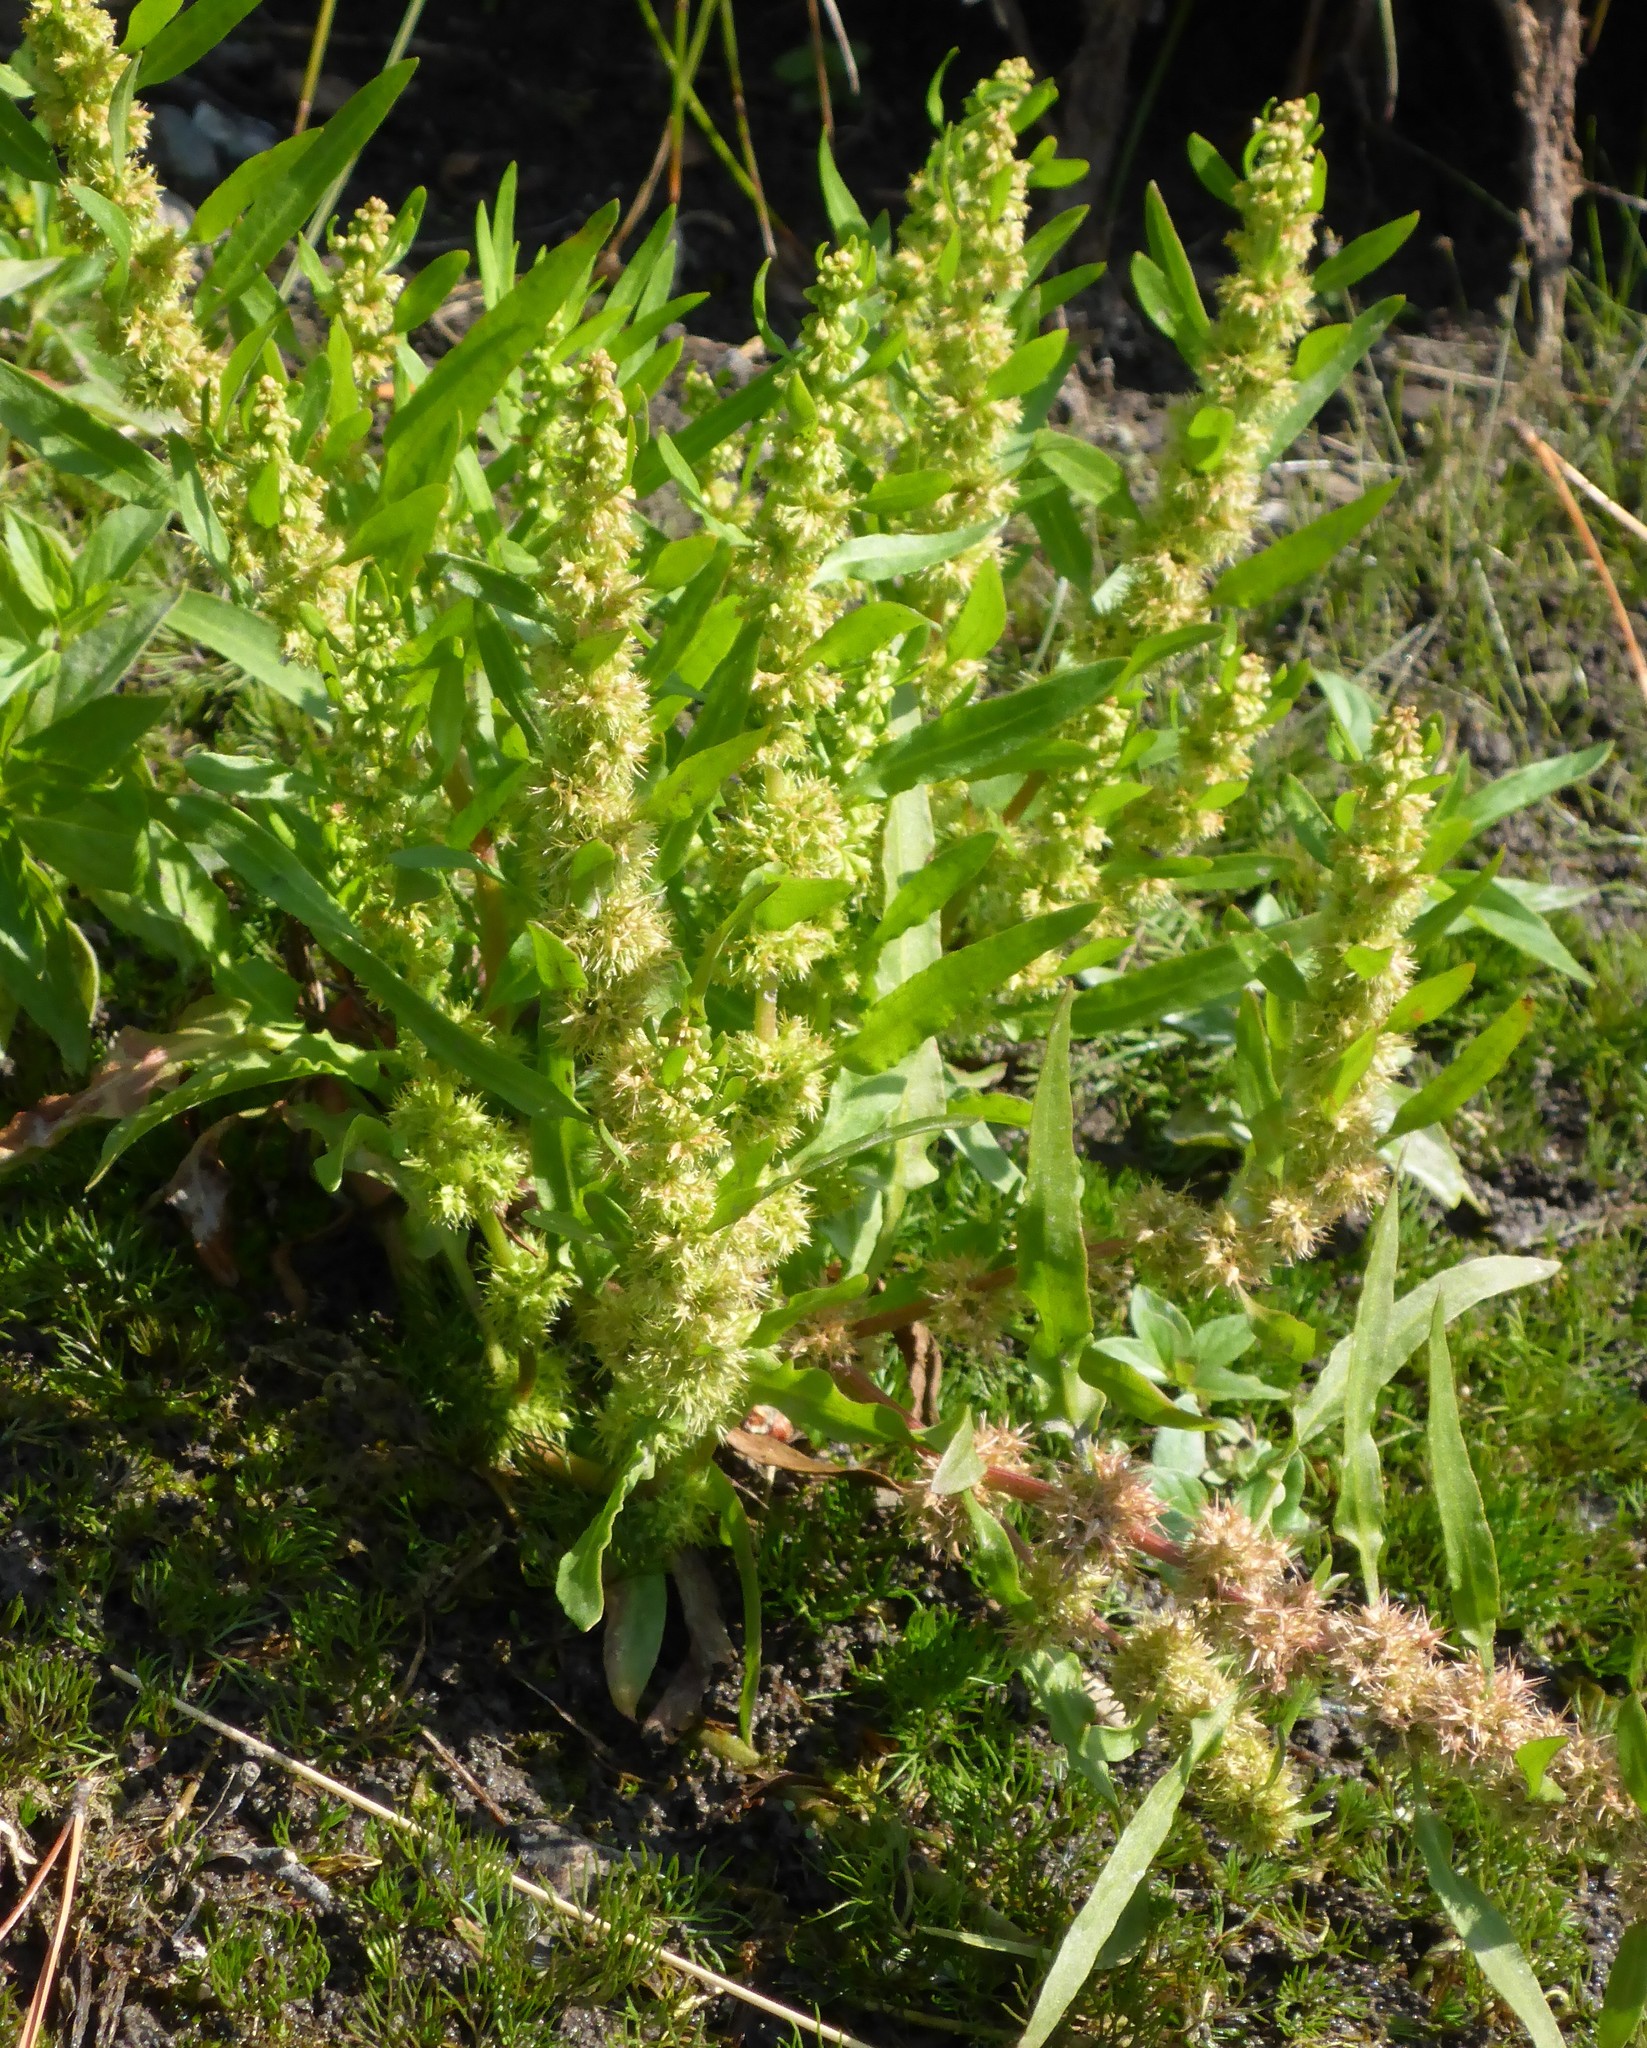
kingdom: Plantae
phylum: Tracheophyta
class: Magnoliopsida
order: Caryophyllales
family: Polygonaceae
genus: Rumex
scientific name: Rumex fueginus
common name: American golden dock
